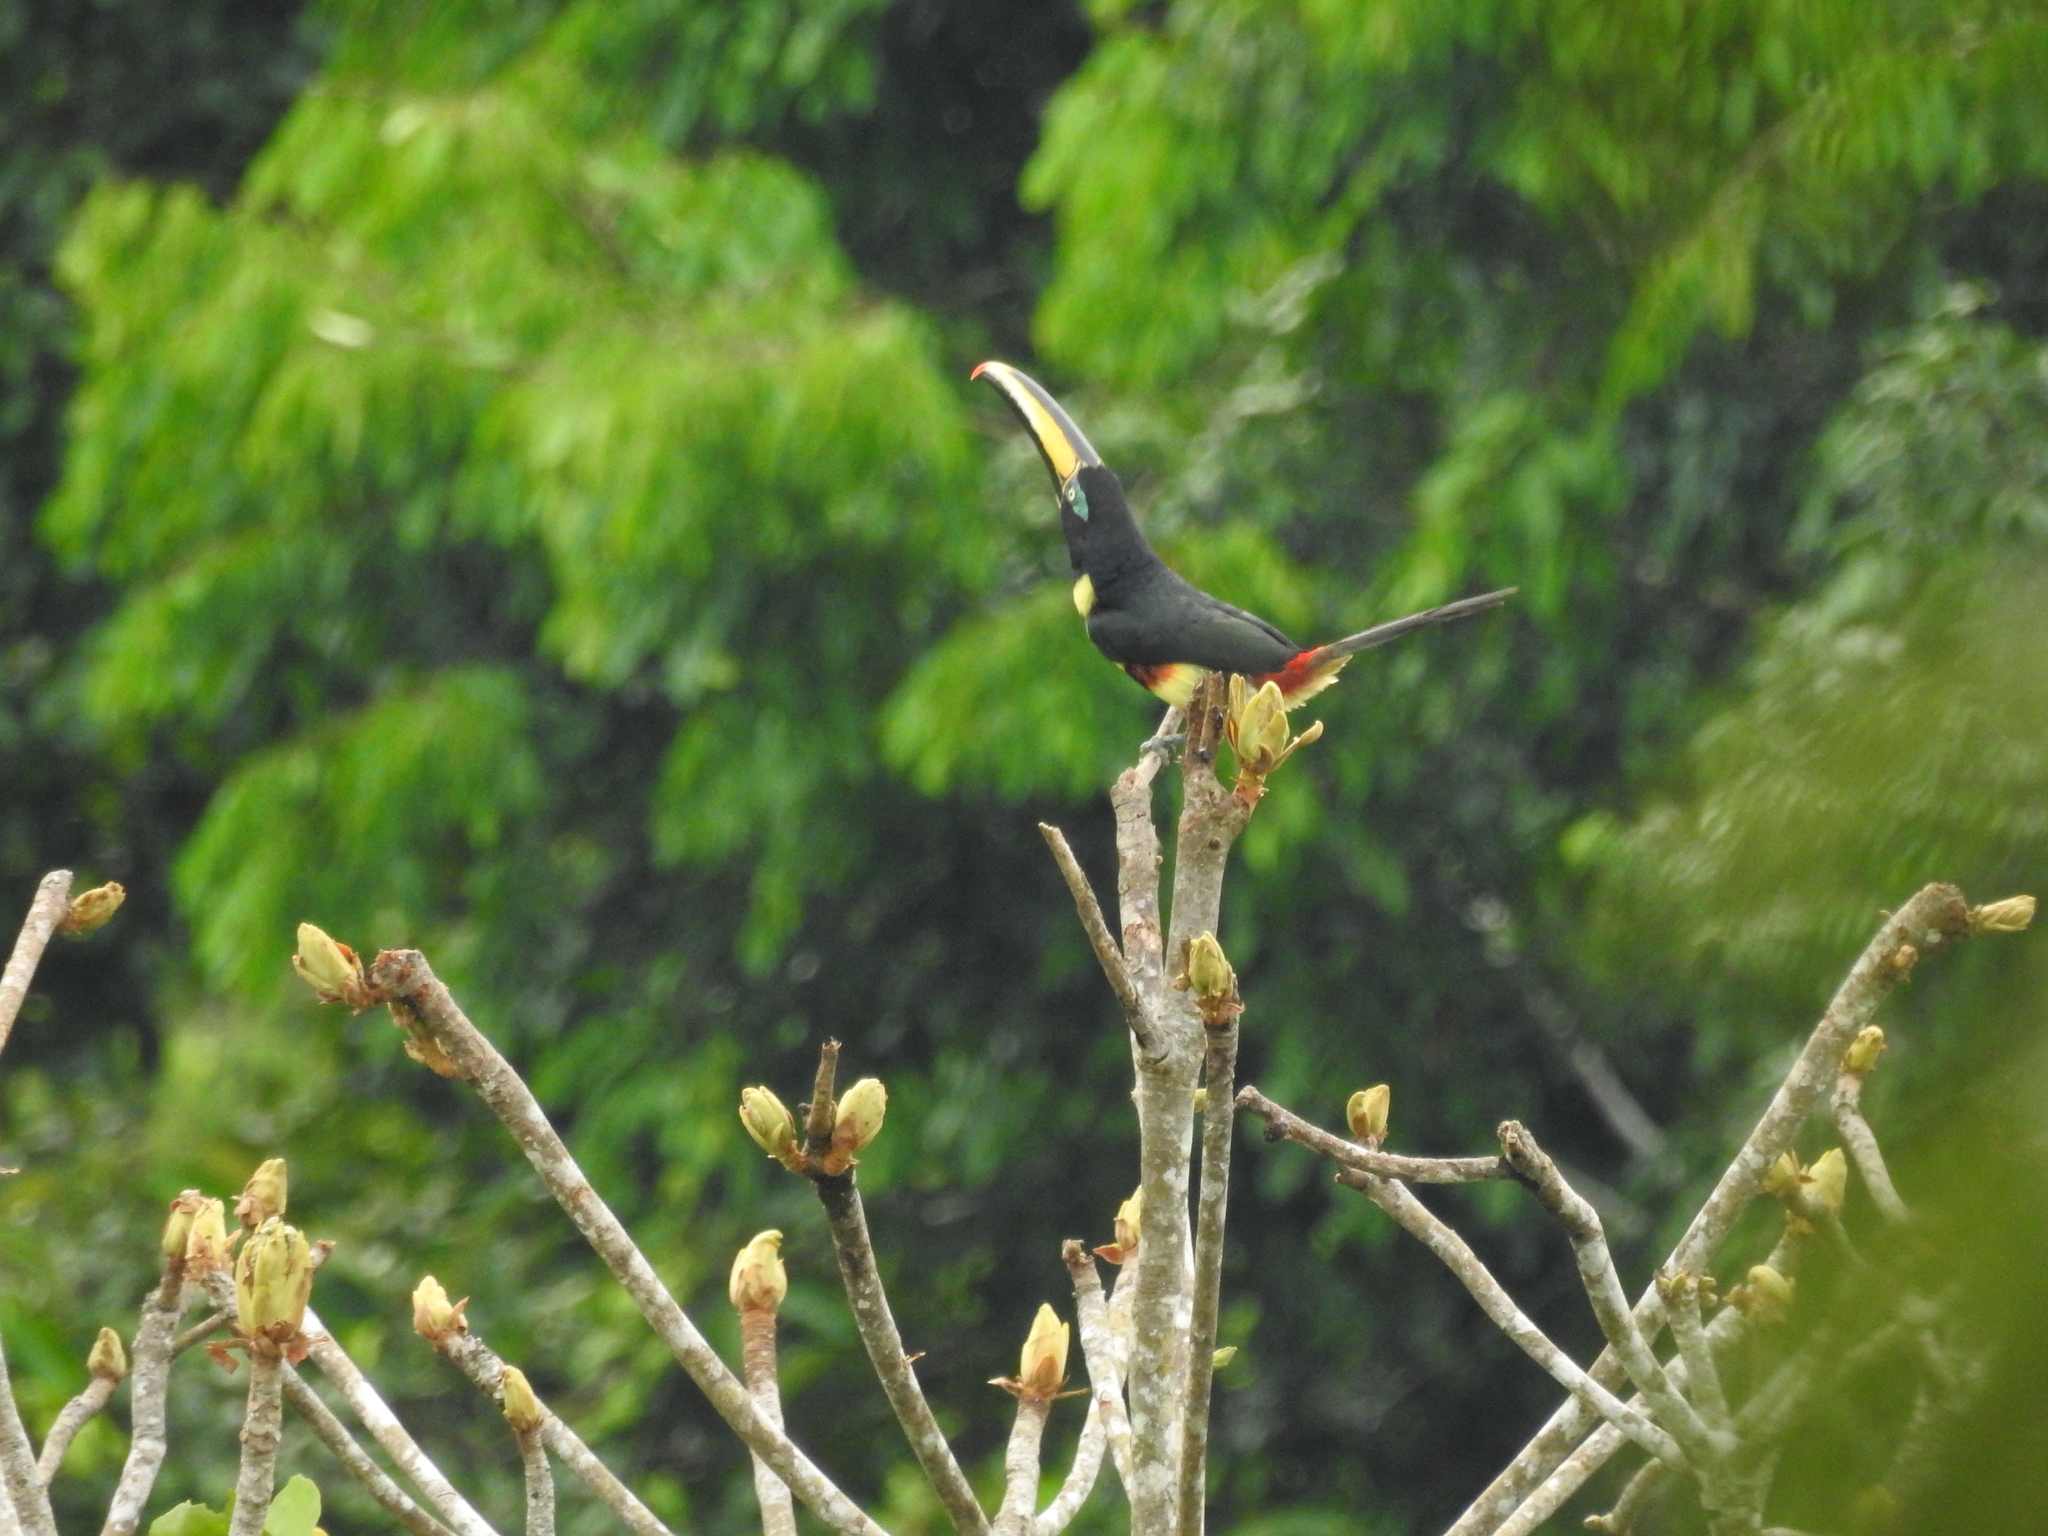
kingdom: Animalia
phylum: Chordata
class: Aves
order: Piciformes
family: Ramphastidae
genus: Pteroglossus
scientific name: Pteroglossus pluricinctus
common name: Many-banded aracari
